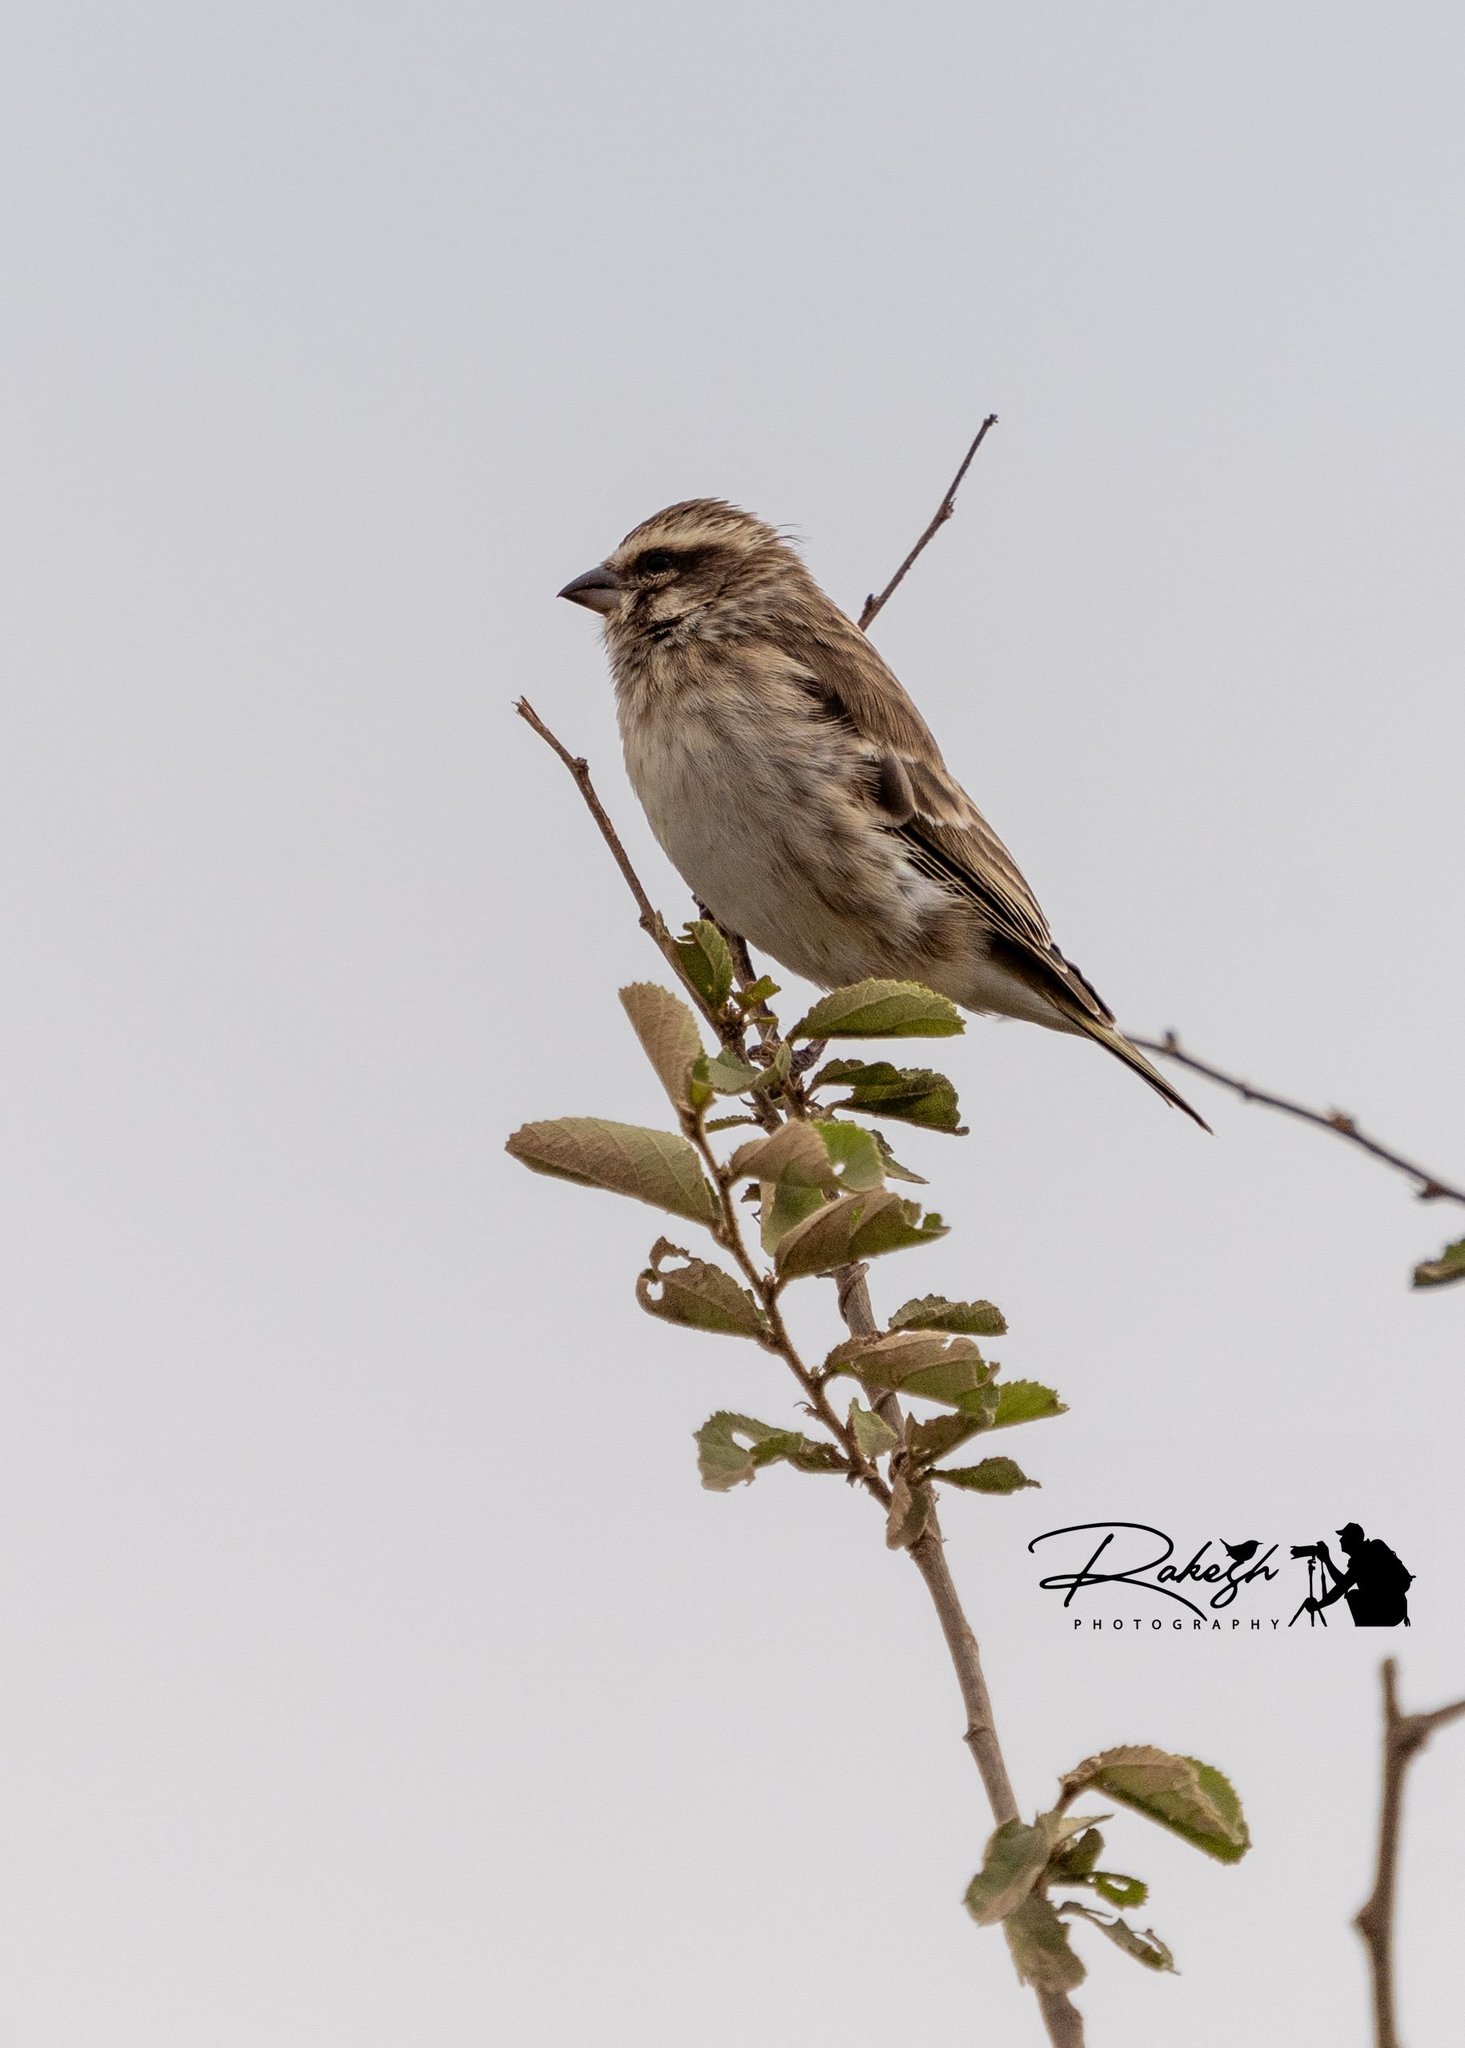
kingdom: Animalia
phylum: Chordata
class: Aves
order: Passeriformes
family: Fringillidae
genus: Crithagra
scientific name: Crithagra reichenowi
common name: Reichenow's seedeater
